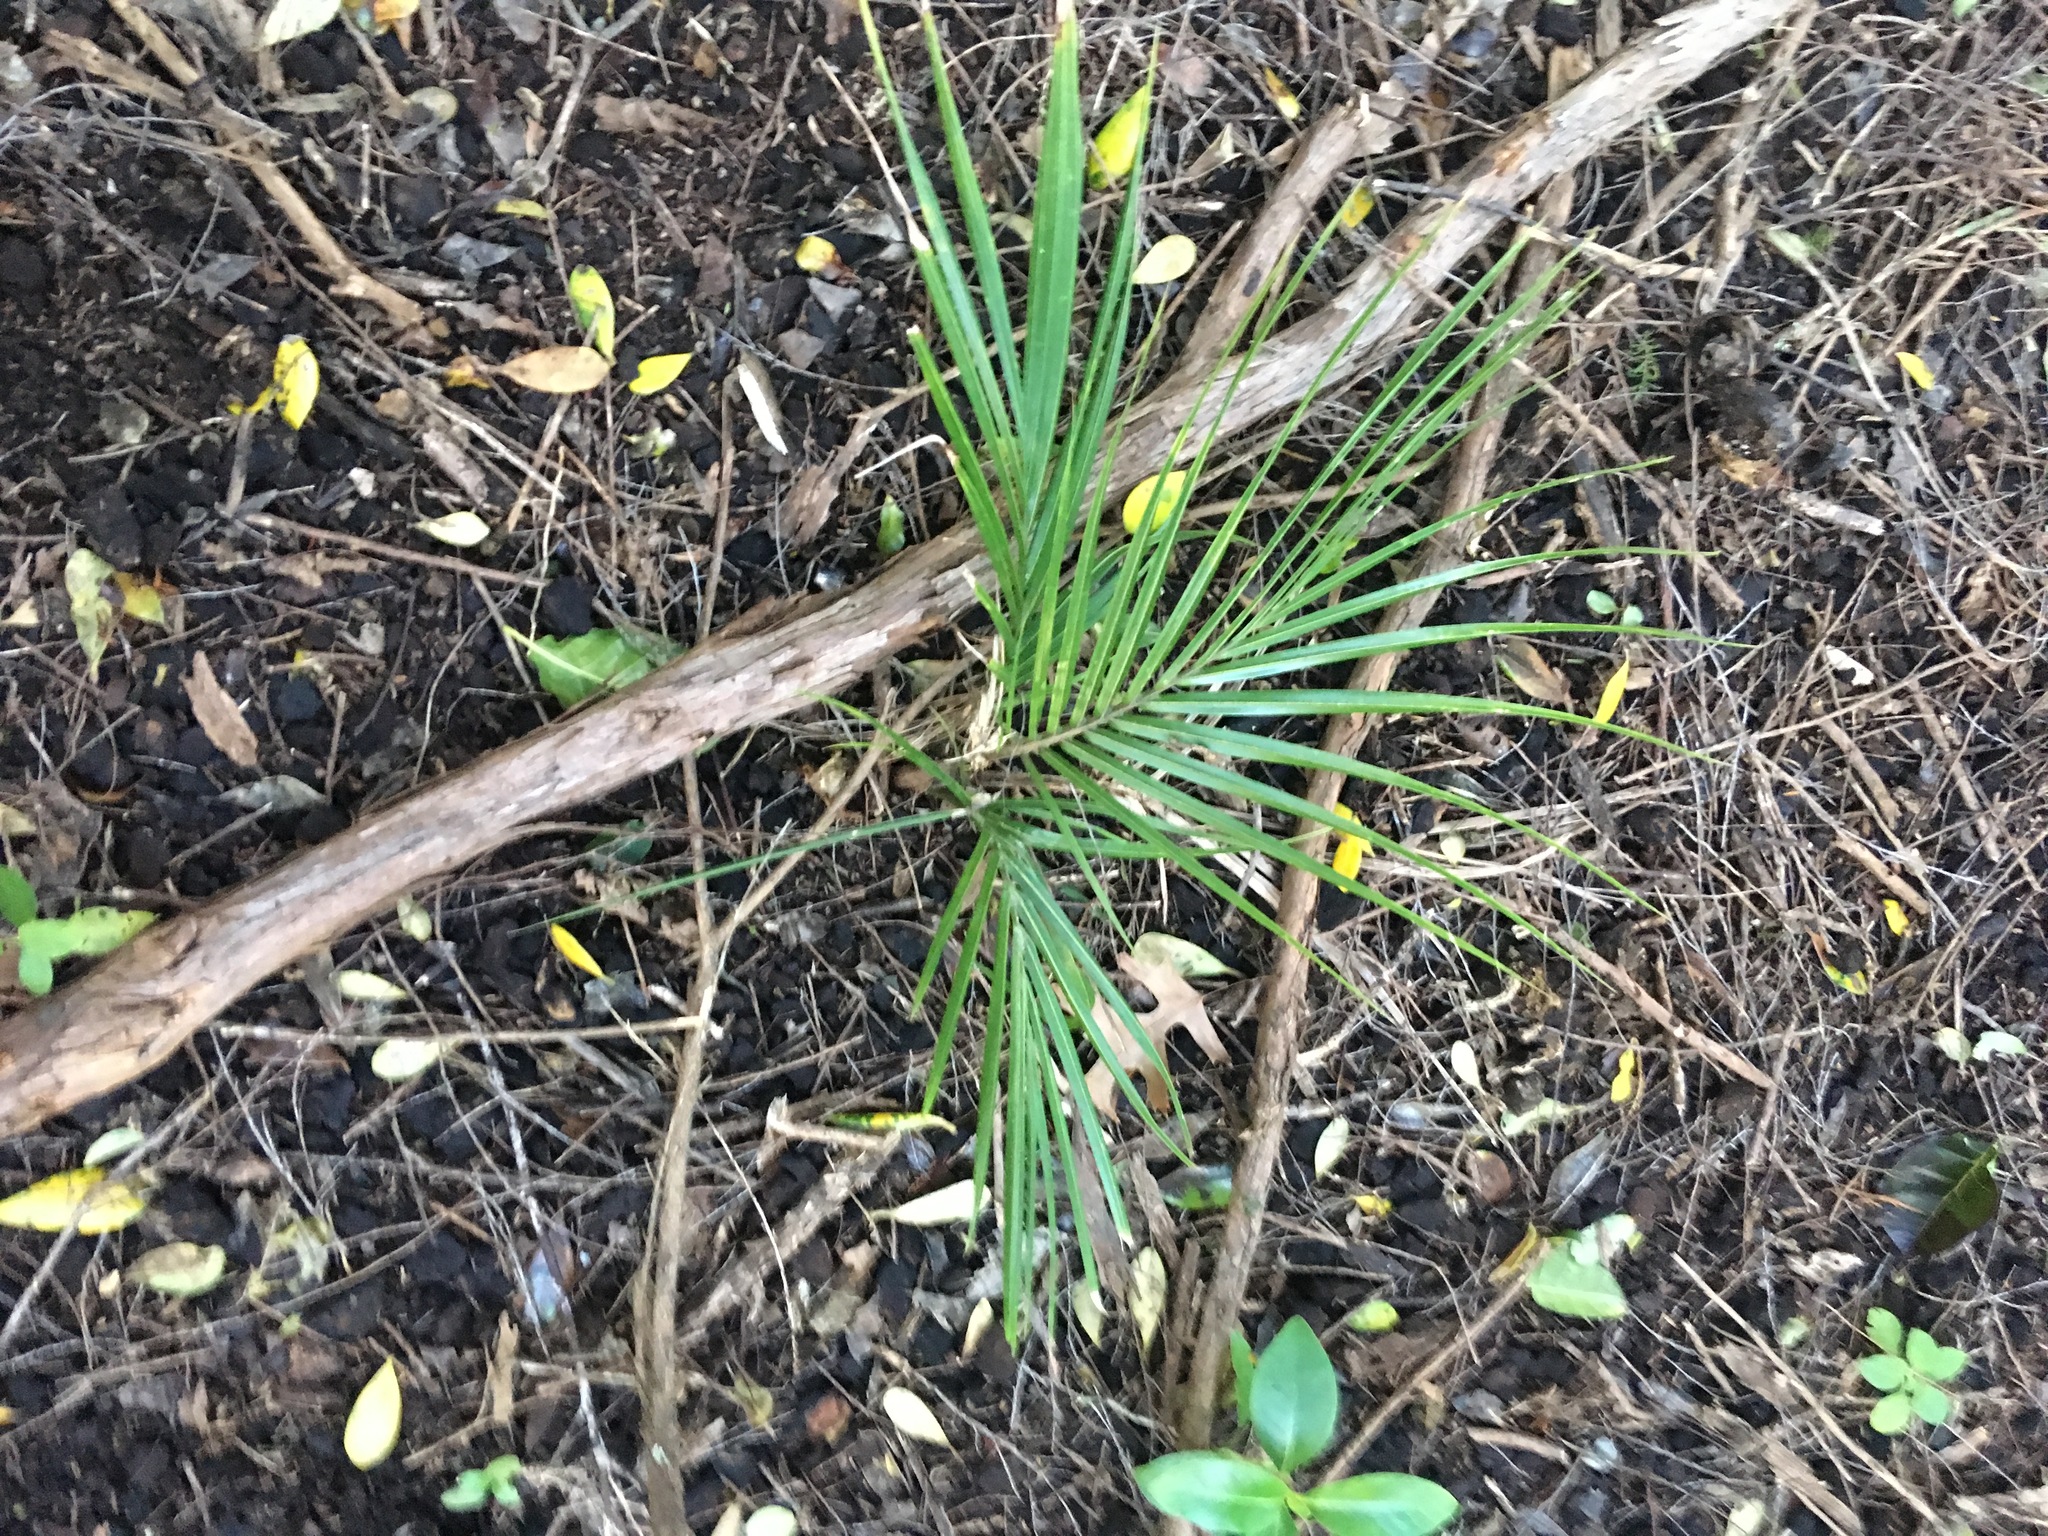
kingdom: Plantae
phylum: Tracheophyta
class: Liliopsida
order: Arecales
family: Arecaceae
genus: Rhopalostylis
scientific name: Rhopalostylis sapida
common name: Feather-duster palm
